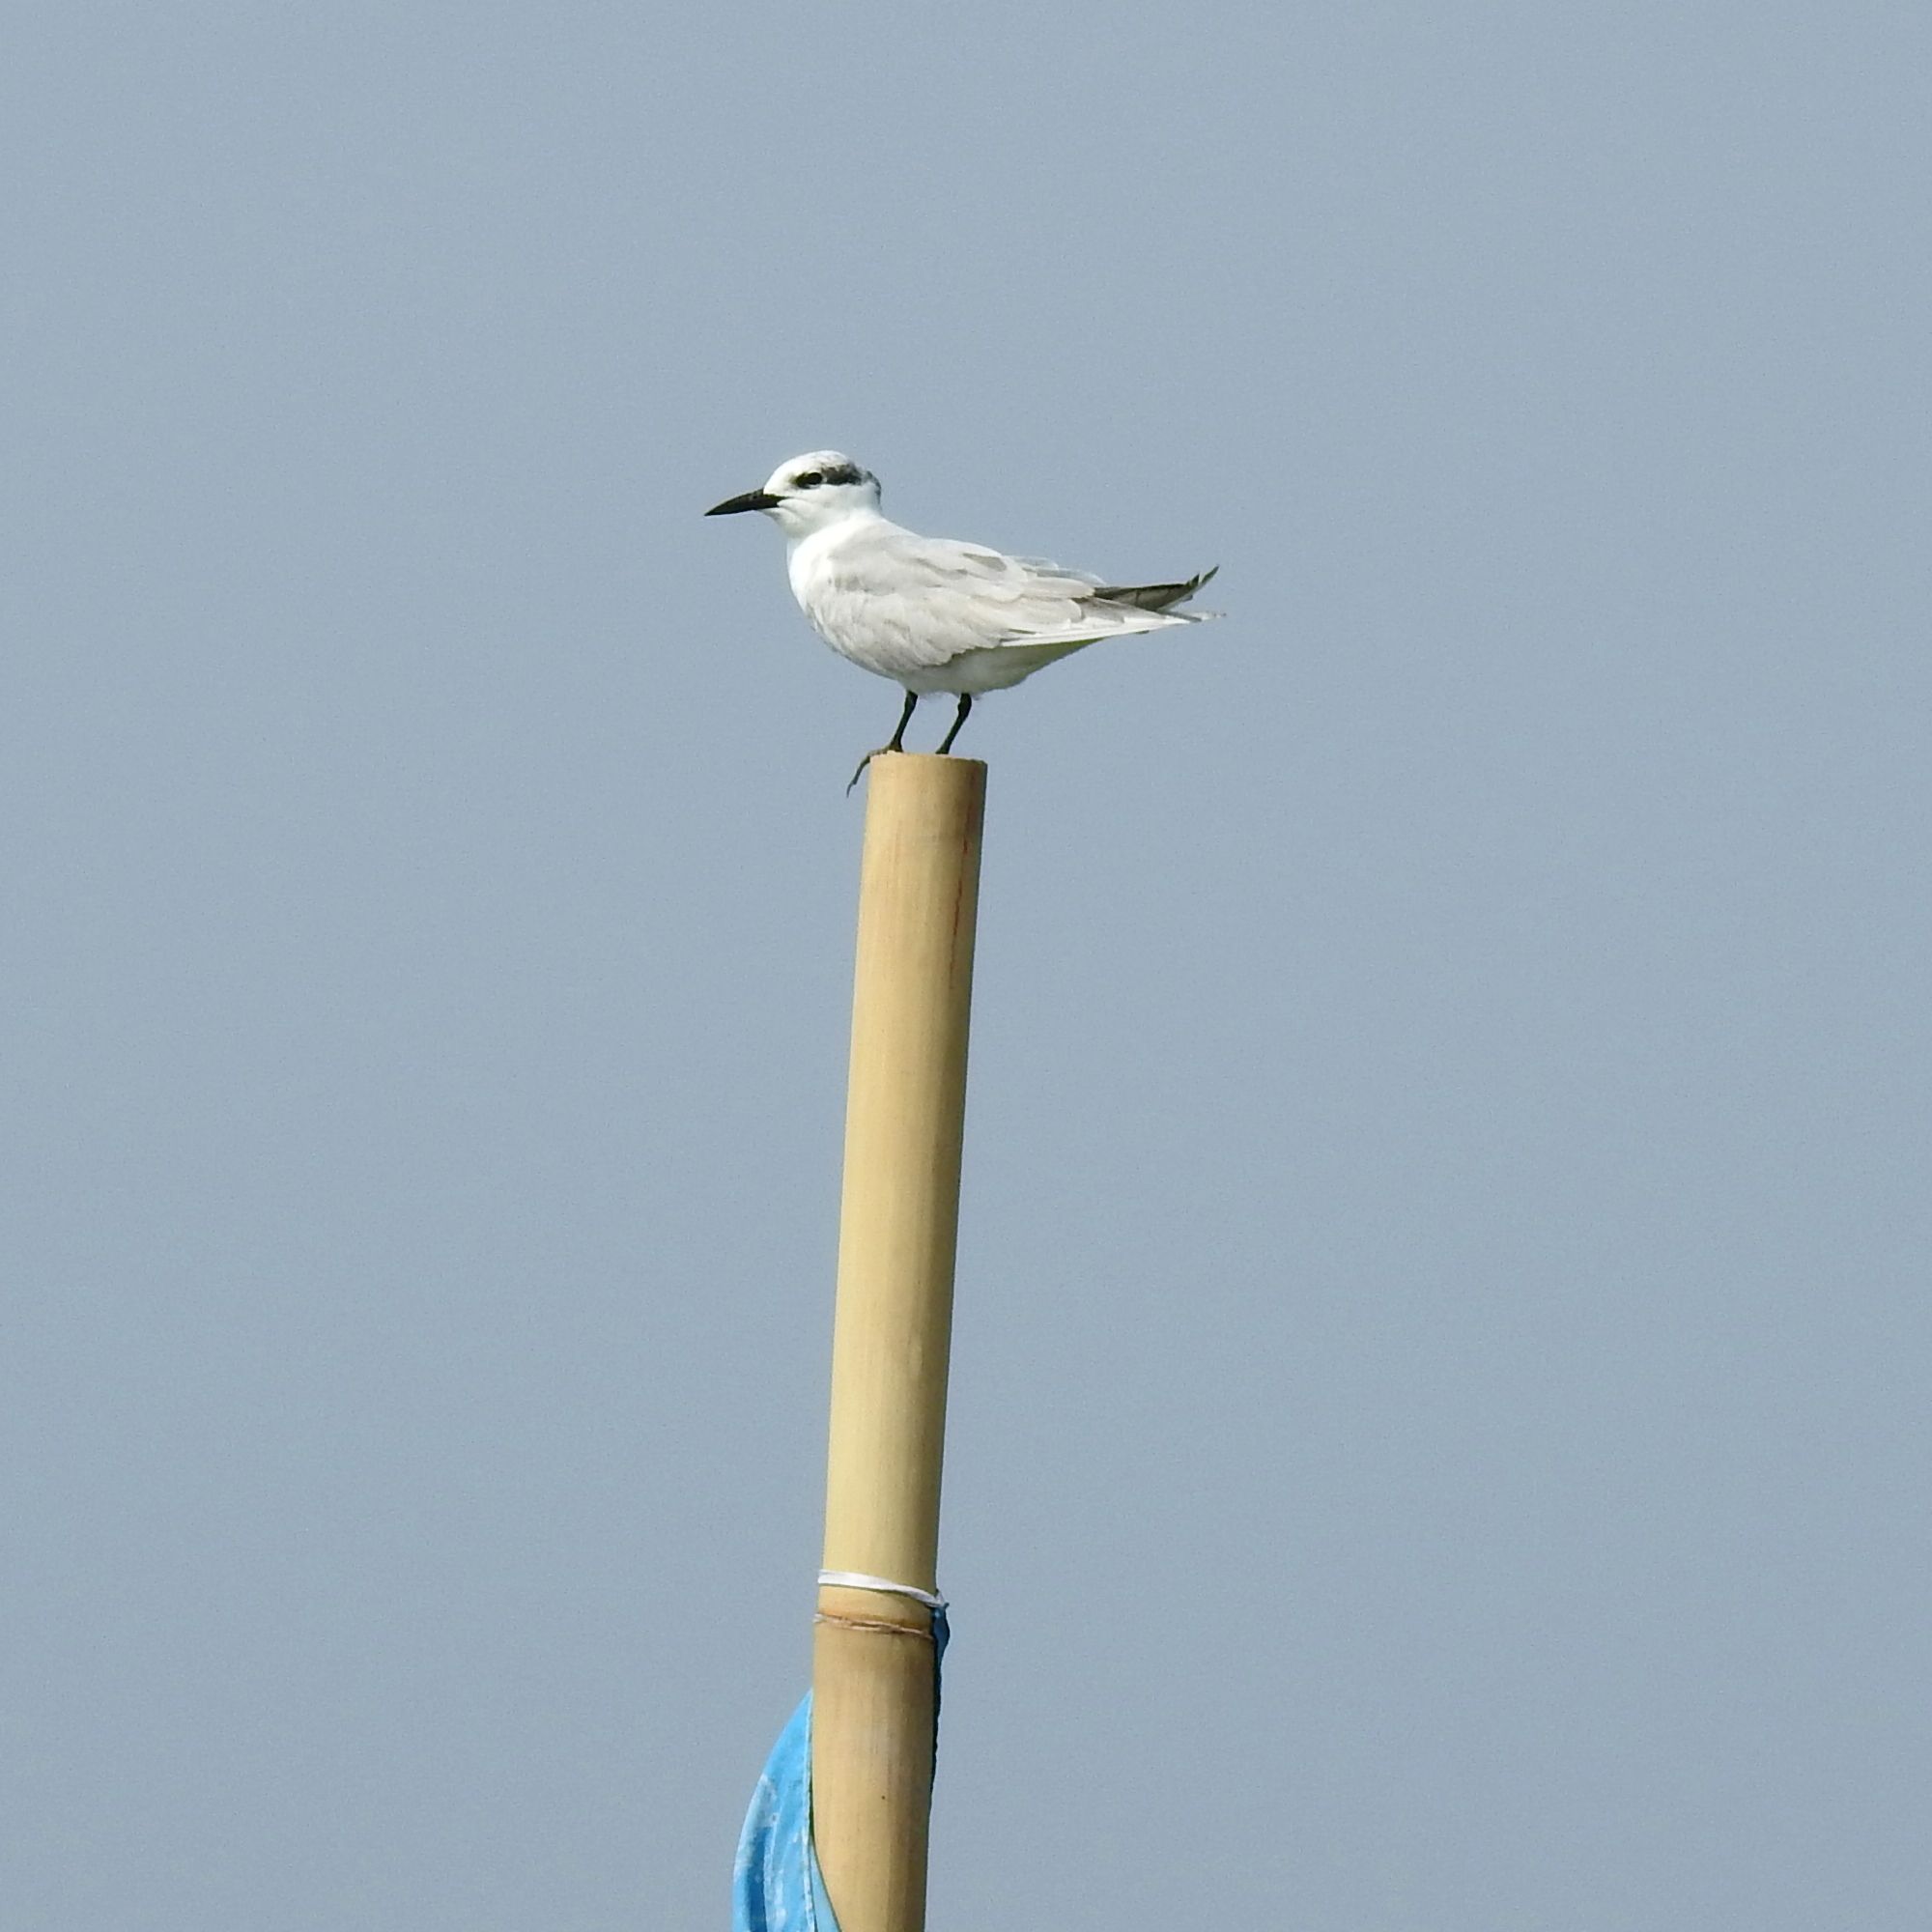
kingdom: Animalia
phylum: Chordata
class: Aves
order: Charadriiformes
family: Laridae
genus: Chlidonias
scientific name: Chlidonias hybrida
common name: Whiskered tern
